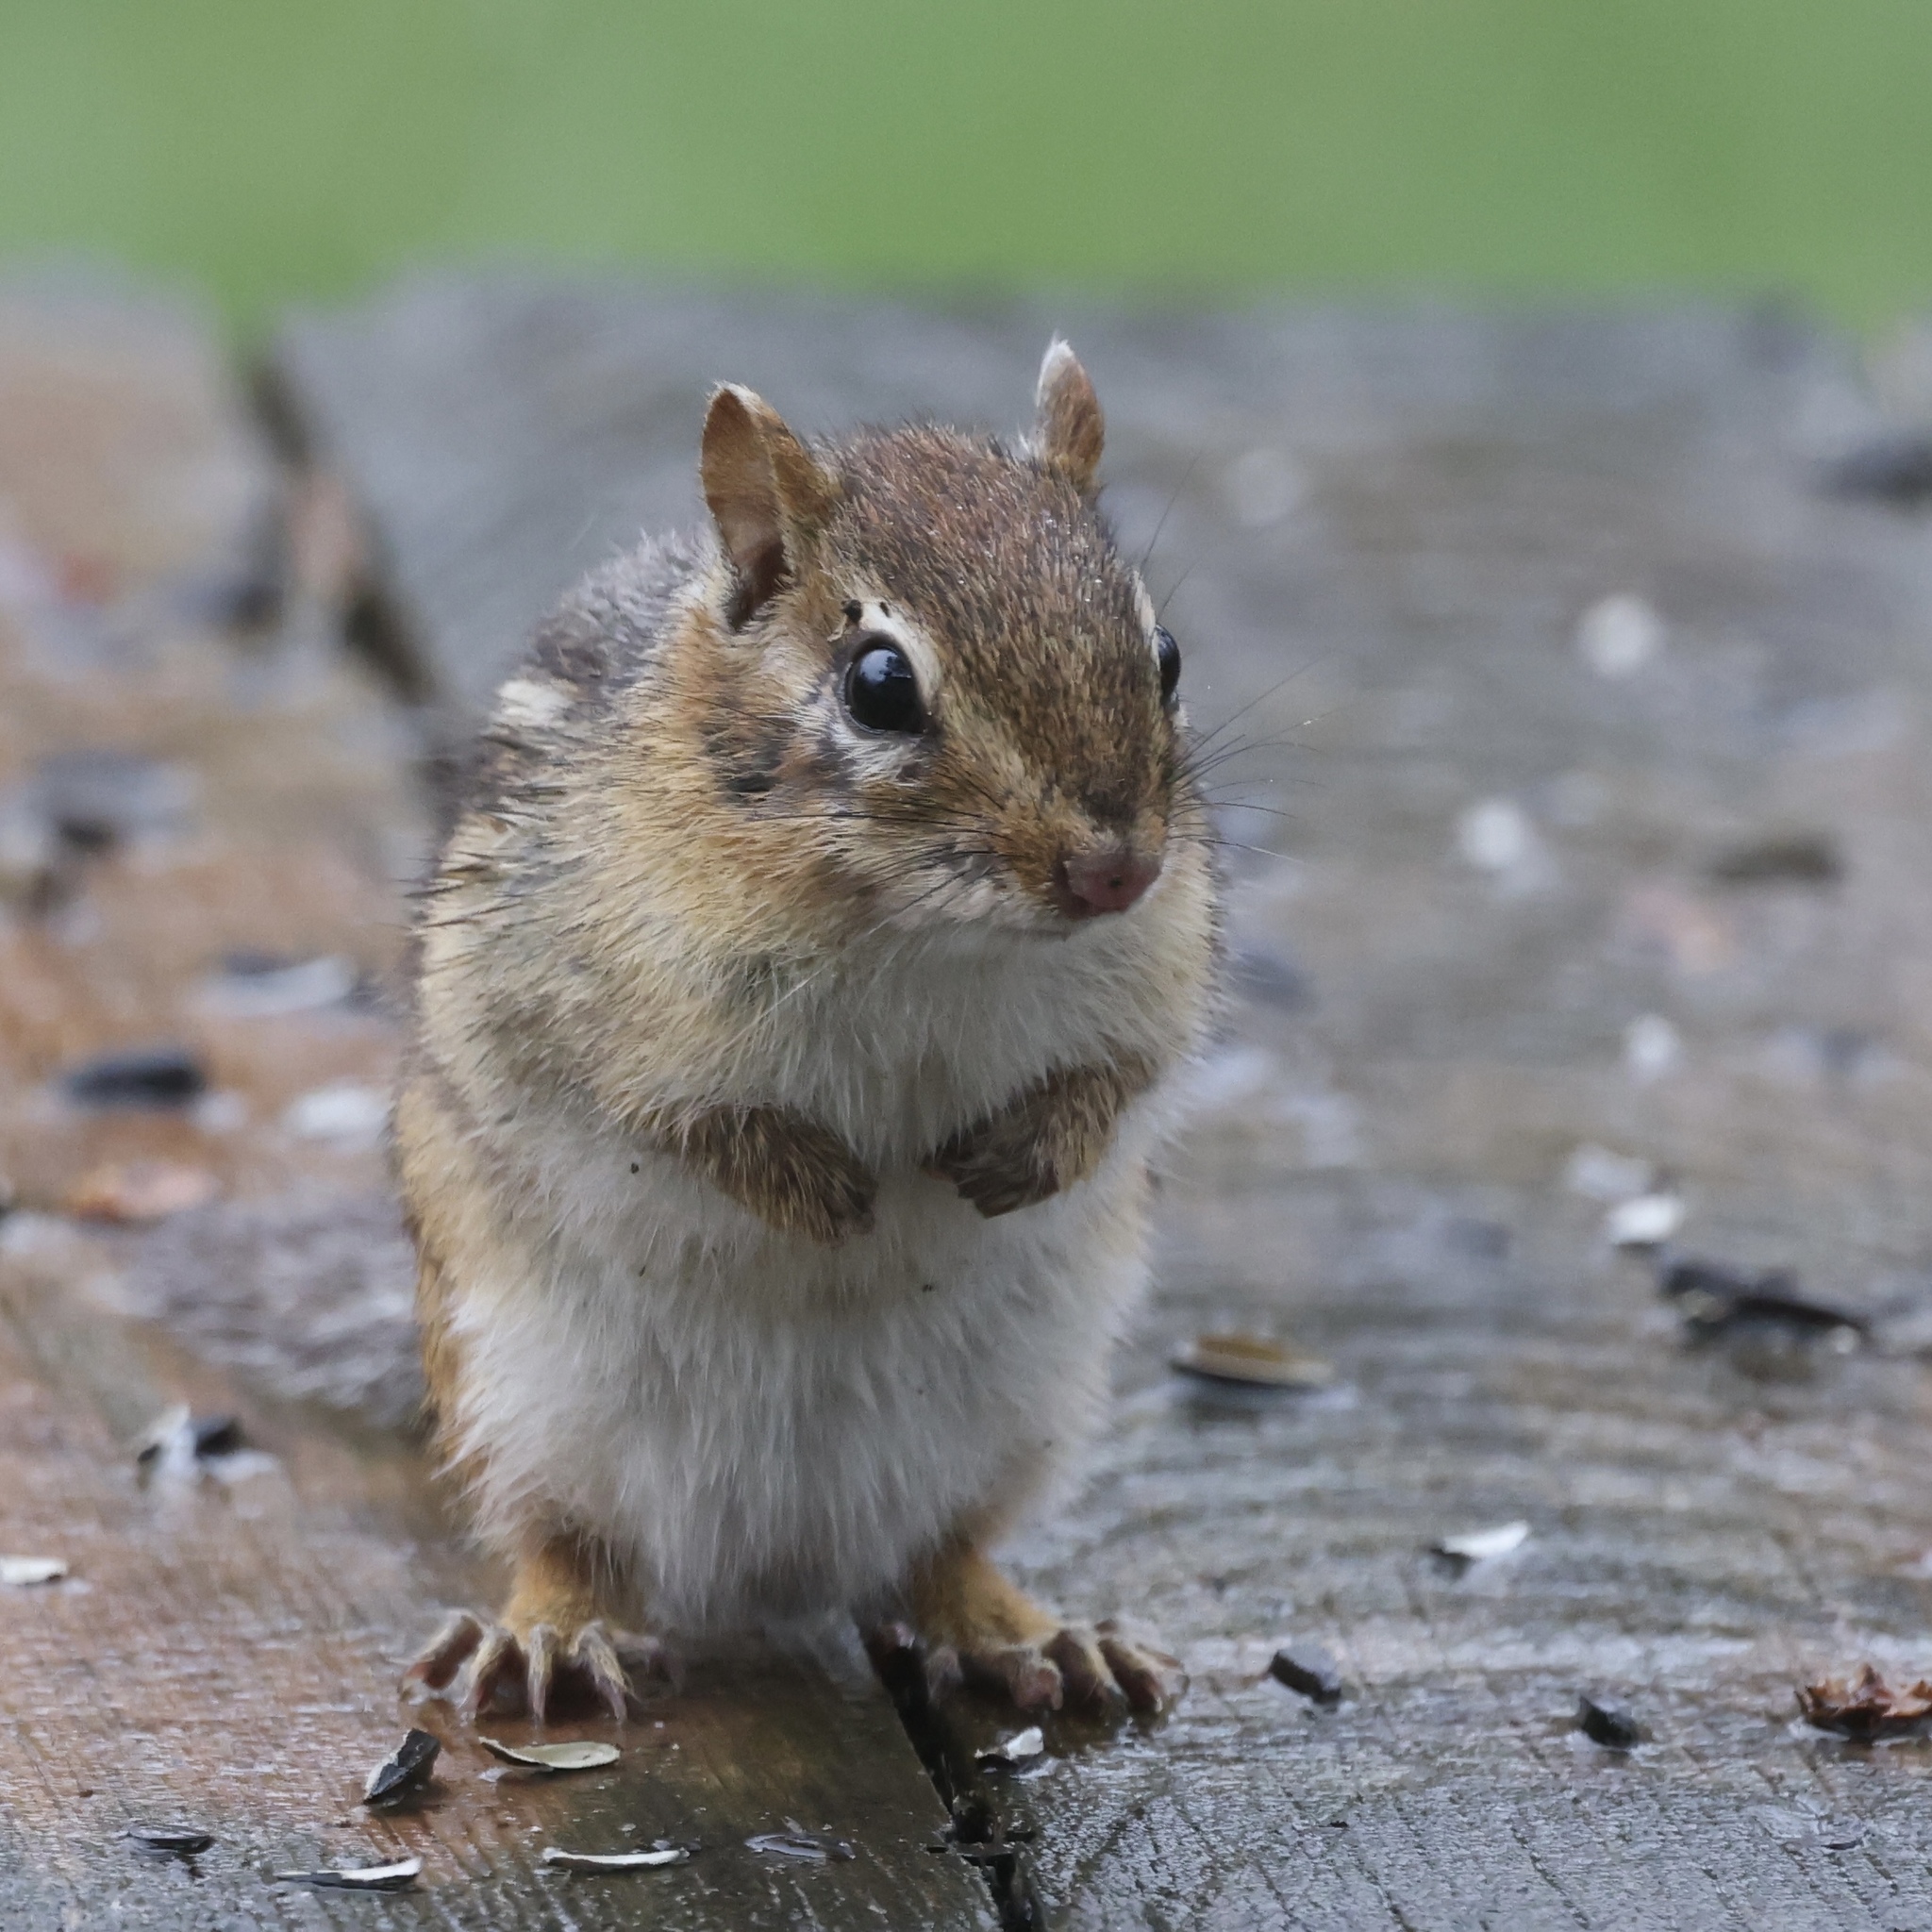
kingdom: Animalia
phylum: Chordata
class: Mammalia
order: Rodentia
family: Sciuridae
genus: Tamias
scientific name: Tamias striatus
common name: Eastern chipmunk
